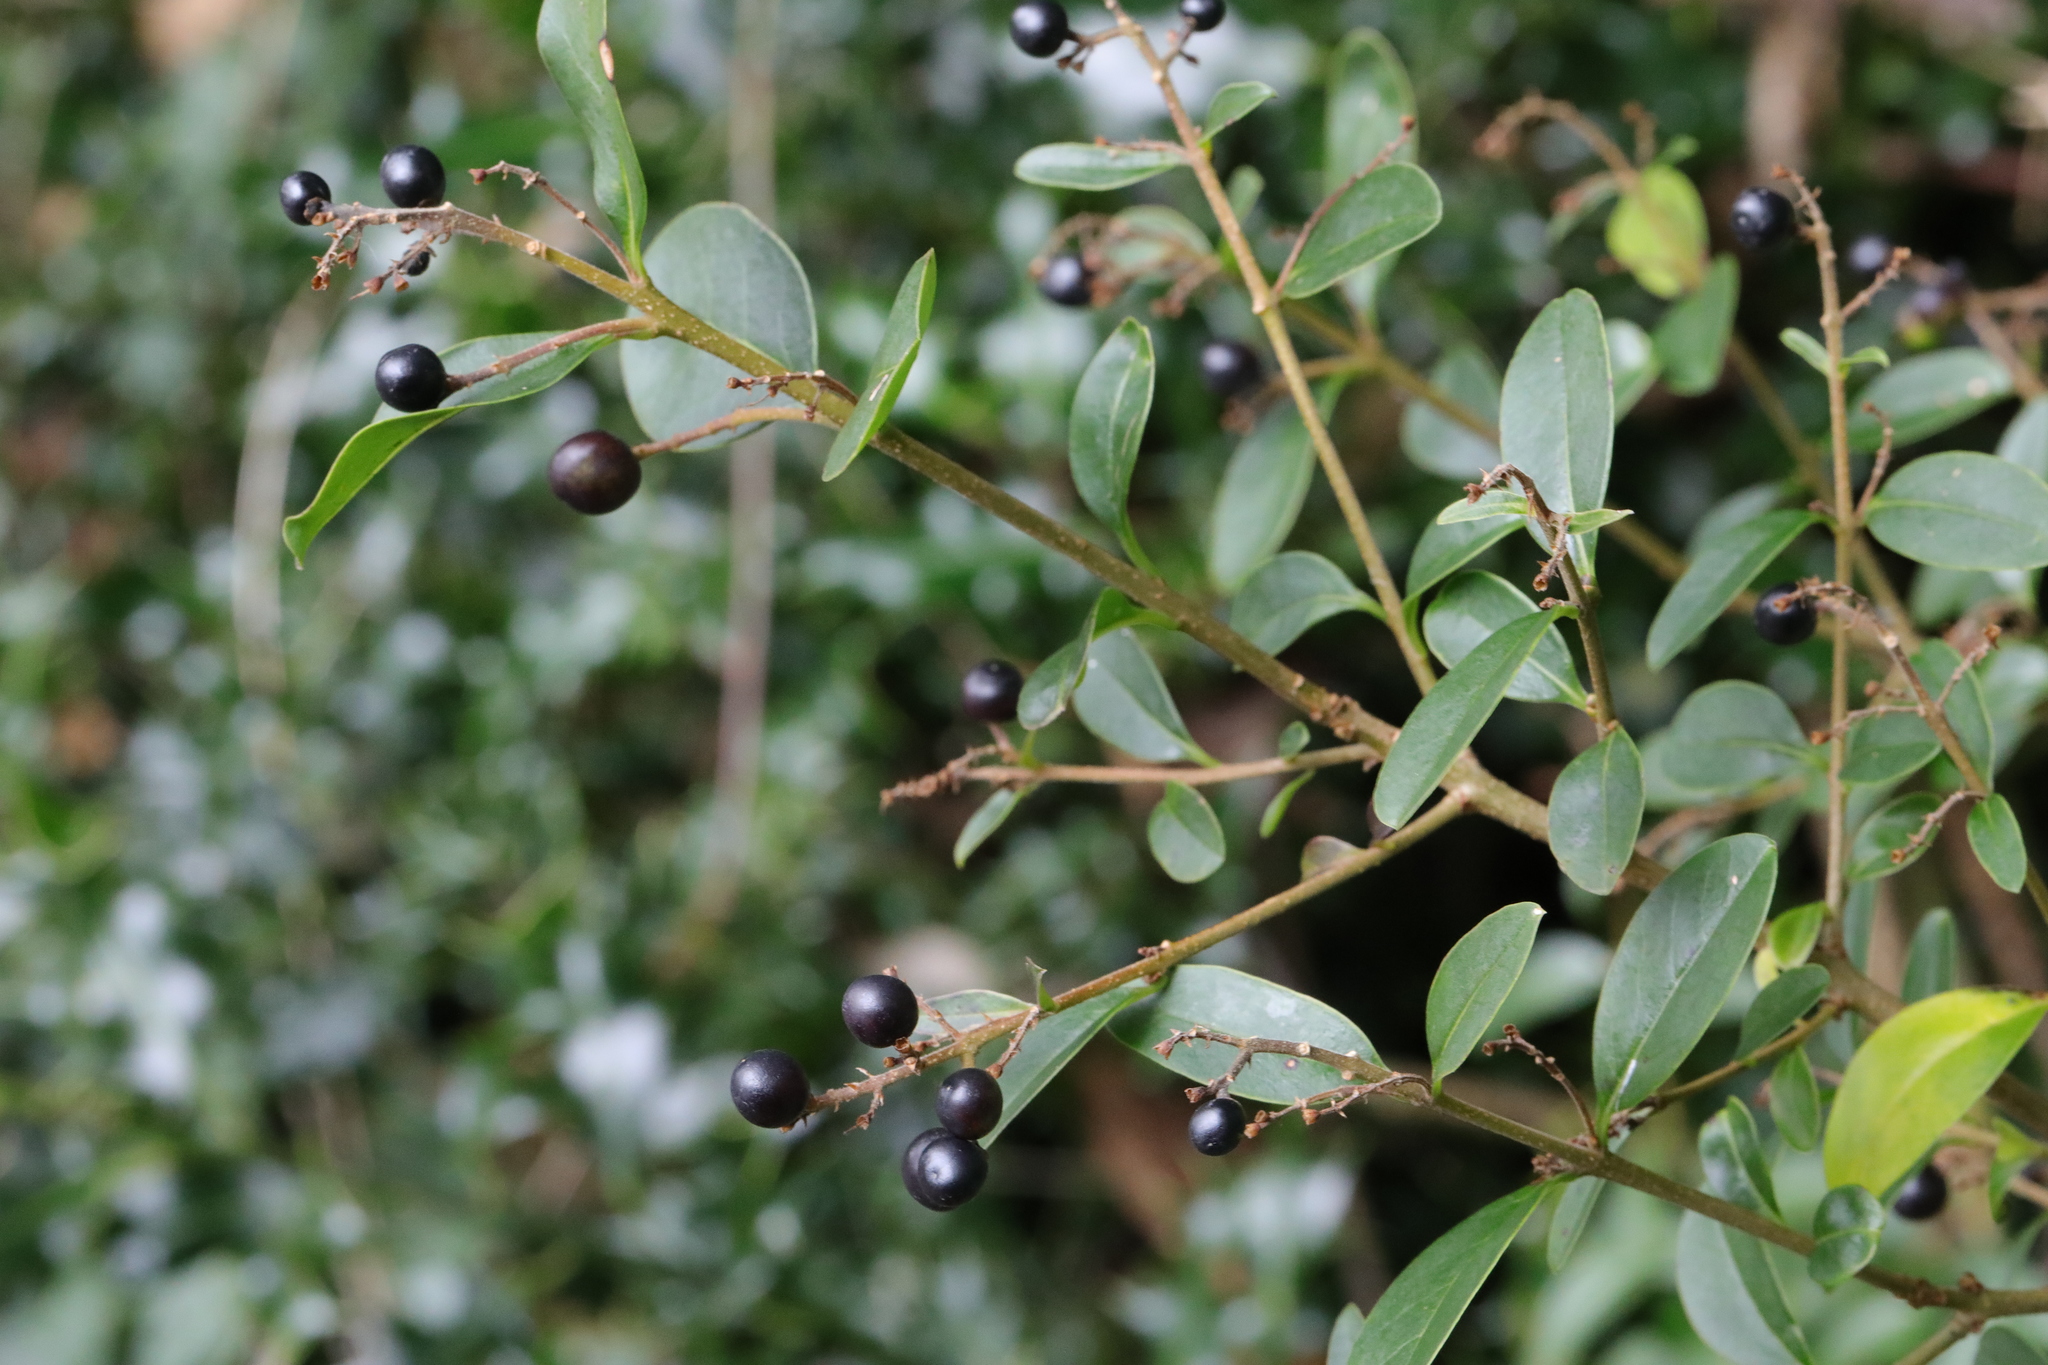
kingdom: Plantae
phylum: Tracheophyta
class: Magnoliopsida
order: Lamiales
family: Oleaceae
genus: Ligustrum
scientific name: Ligustrum vulgare
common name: Wild privet
